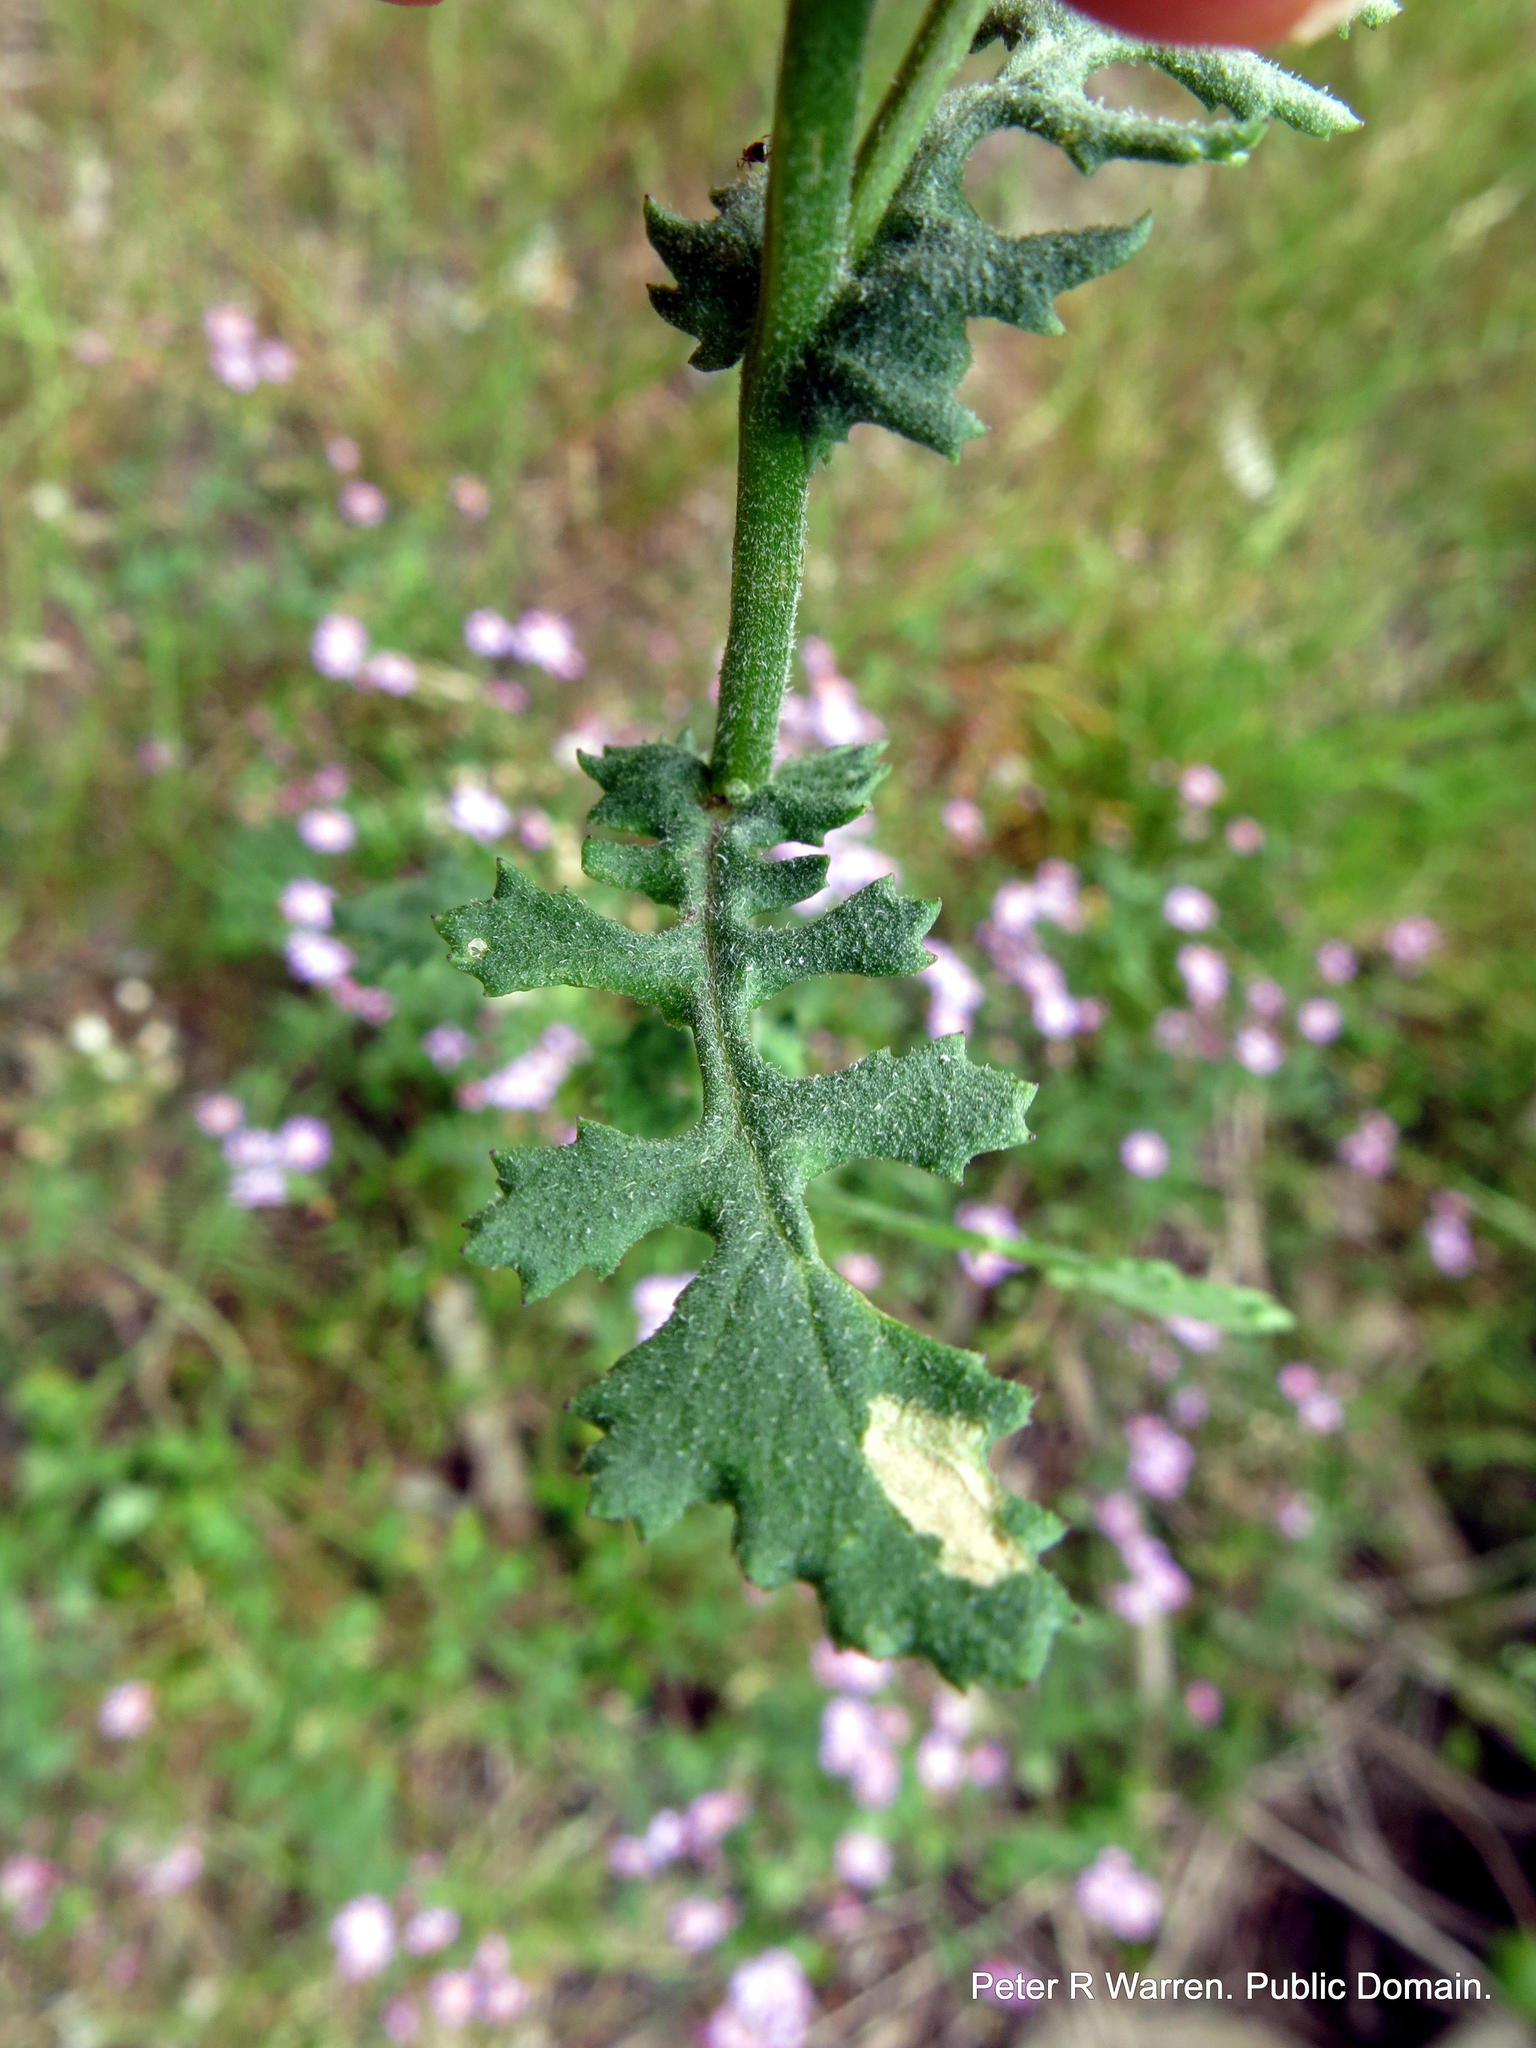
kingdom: Plantae
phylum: Tracheophyta
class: Magnoliopsida
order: Asterales
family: Asteraceae
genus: Senecio
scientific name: Senecio elegans
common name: Purple groundsel
